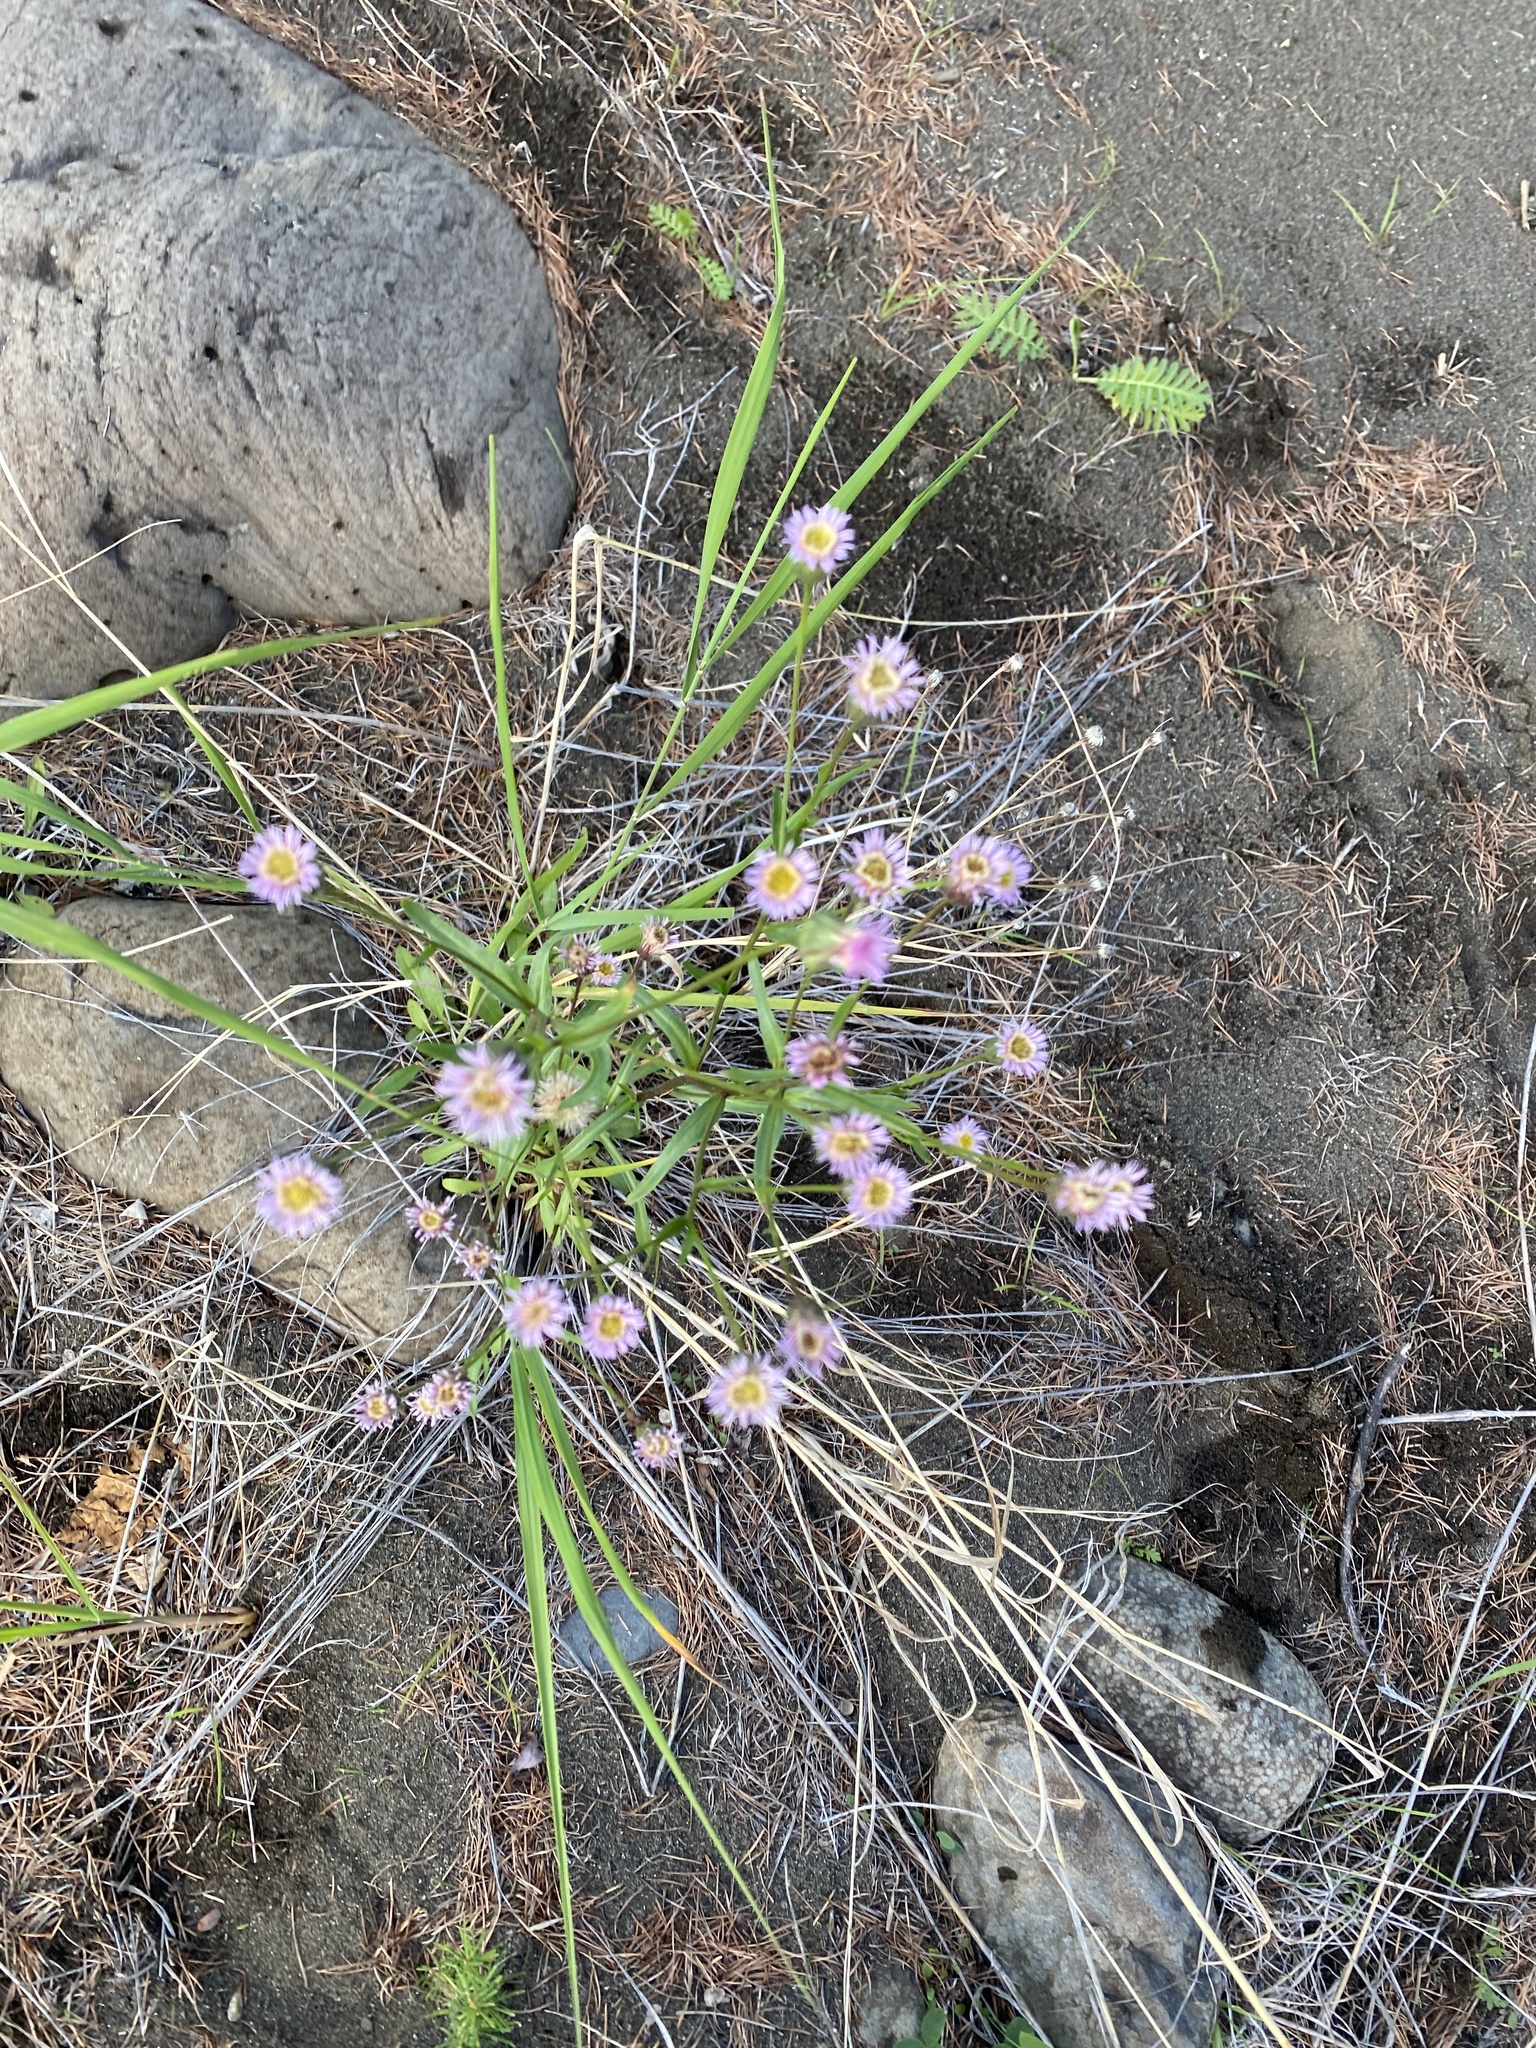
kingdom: Plantae
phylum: Tracheophyta
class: Magnoliopsida
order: Asterales
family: Asteraceae
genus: Erigeron
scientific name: Erigeron acris
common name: Blue fleabane
